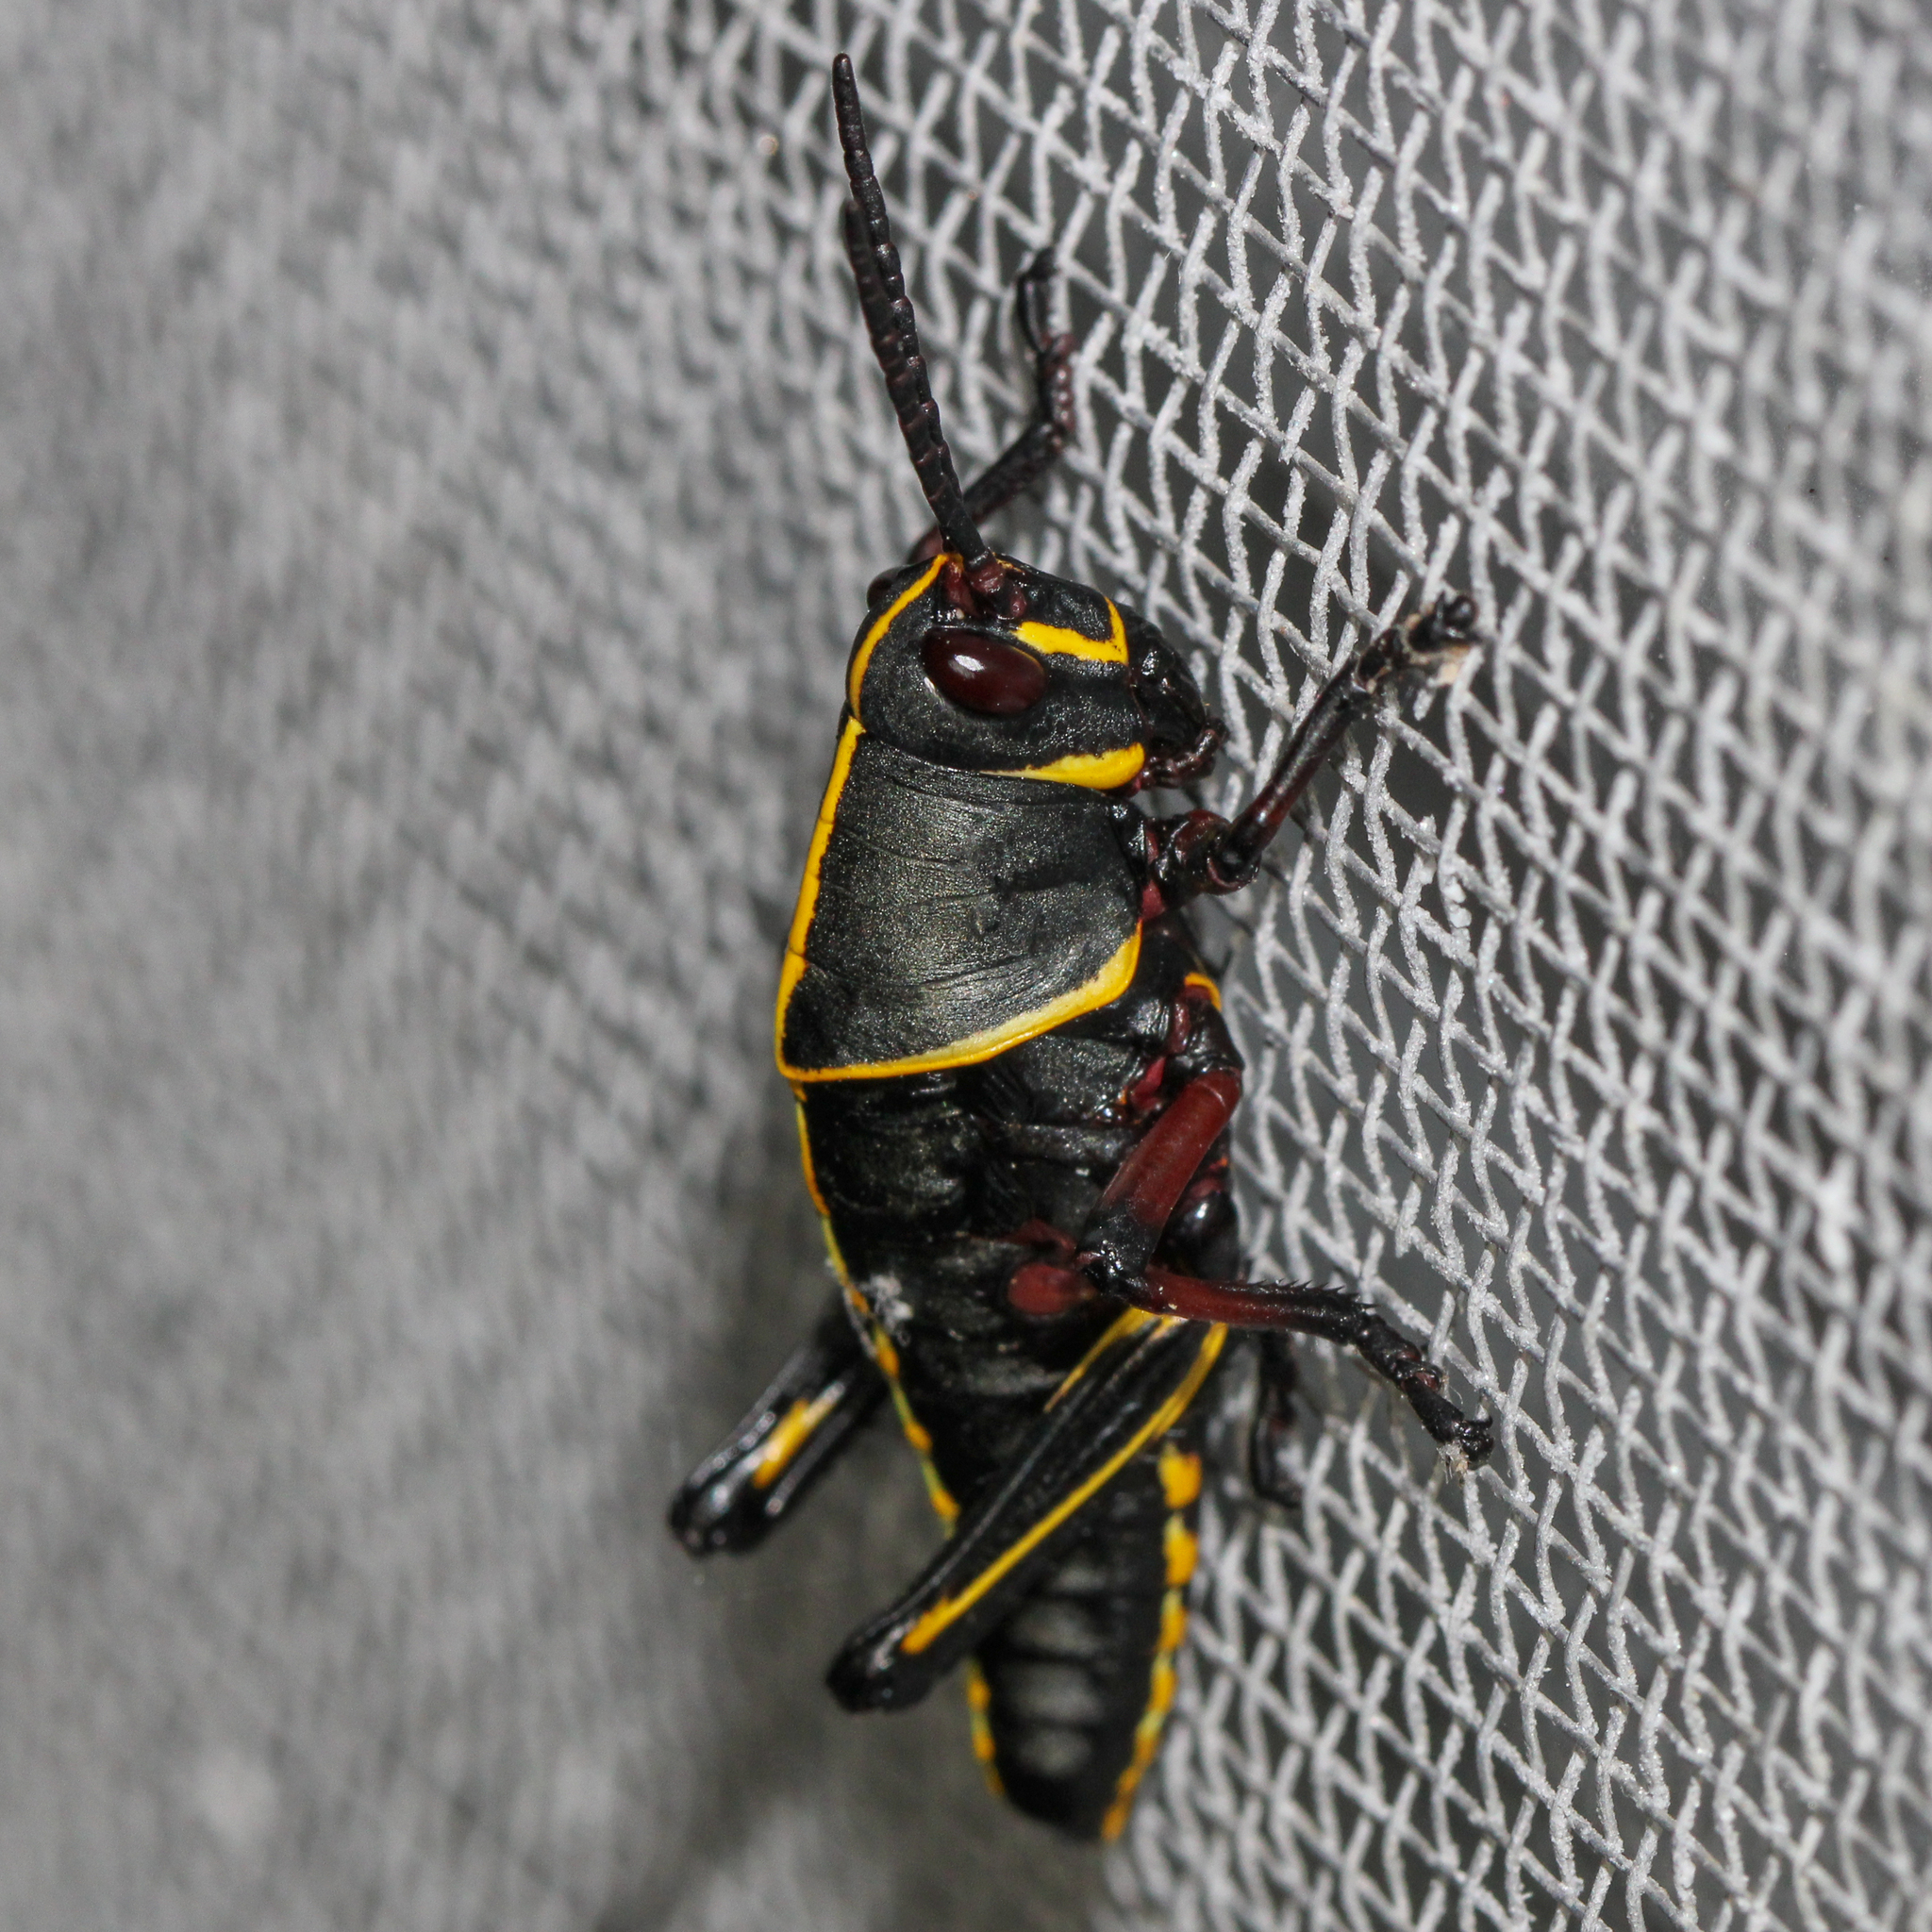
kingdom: Animalia
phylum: Arthropoda
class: Insecta
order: Orthoptera
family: Romaleidae
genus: Romalea
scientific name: Romalea microptera
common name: Eastern lubber grasshopper
